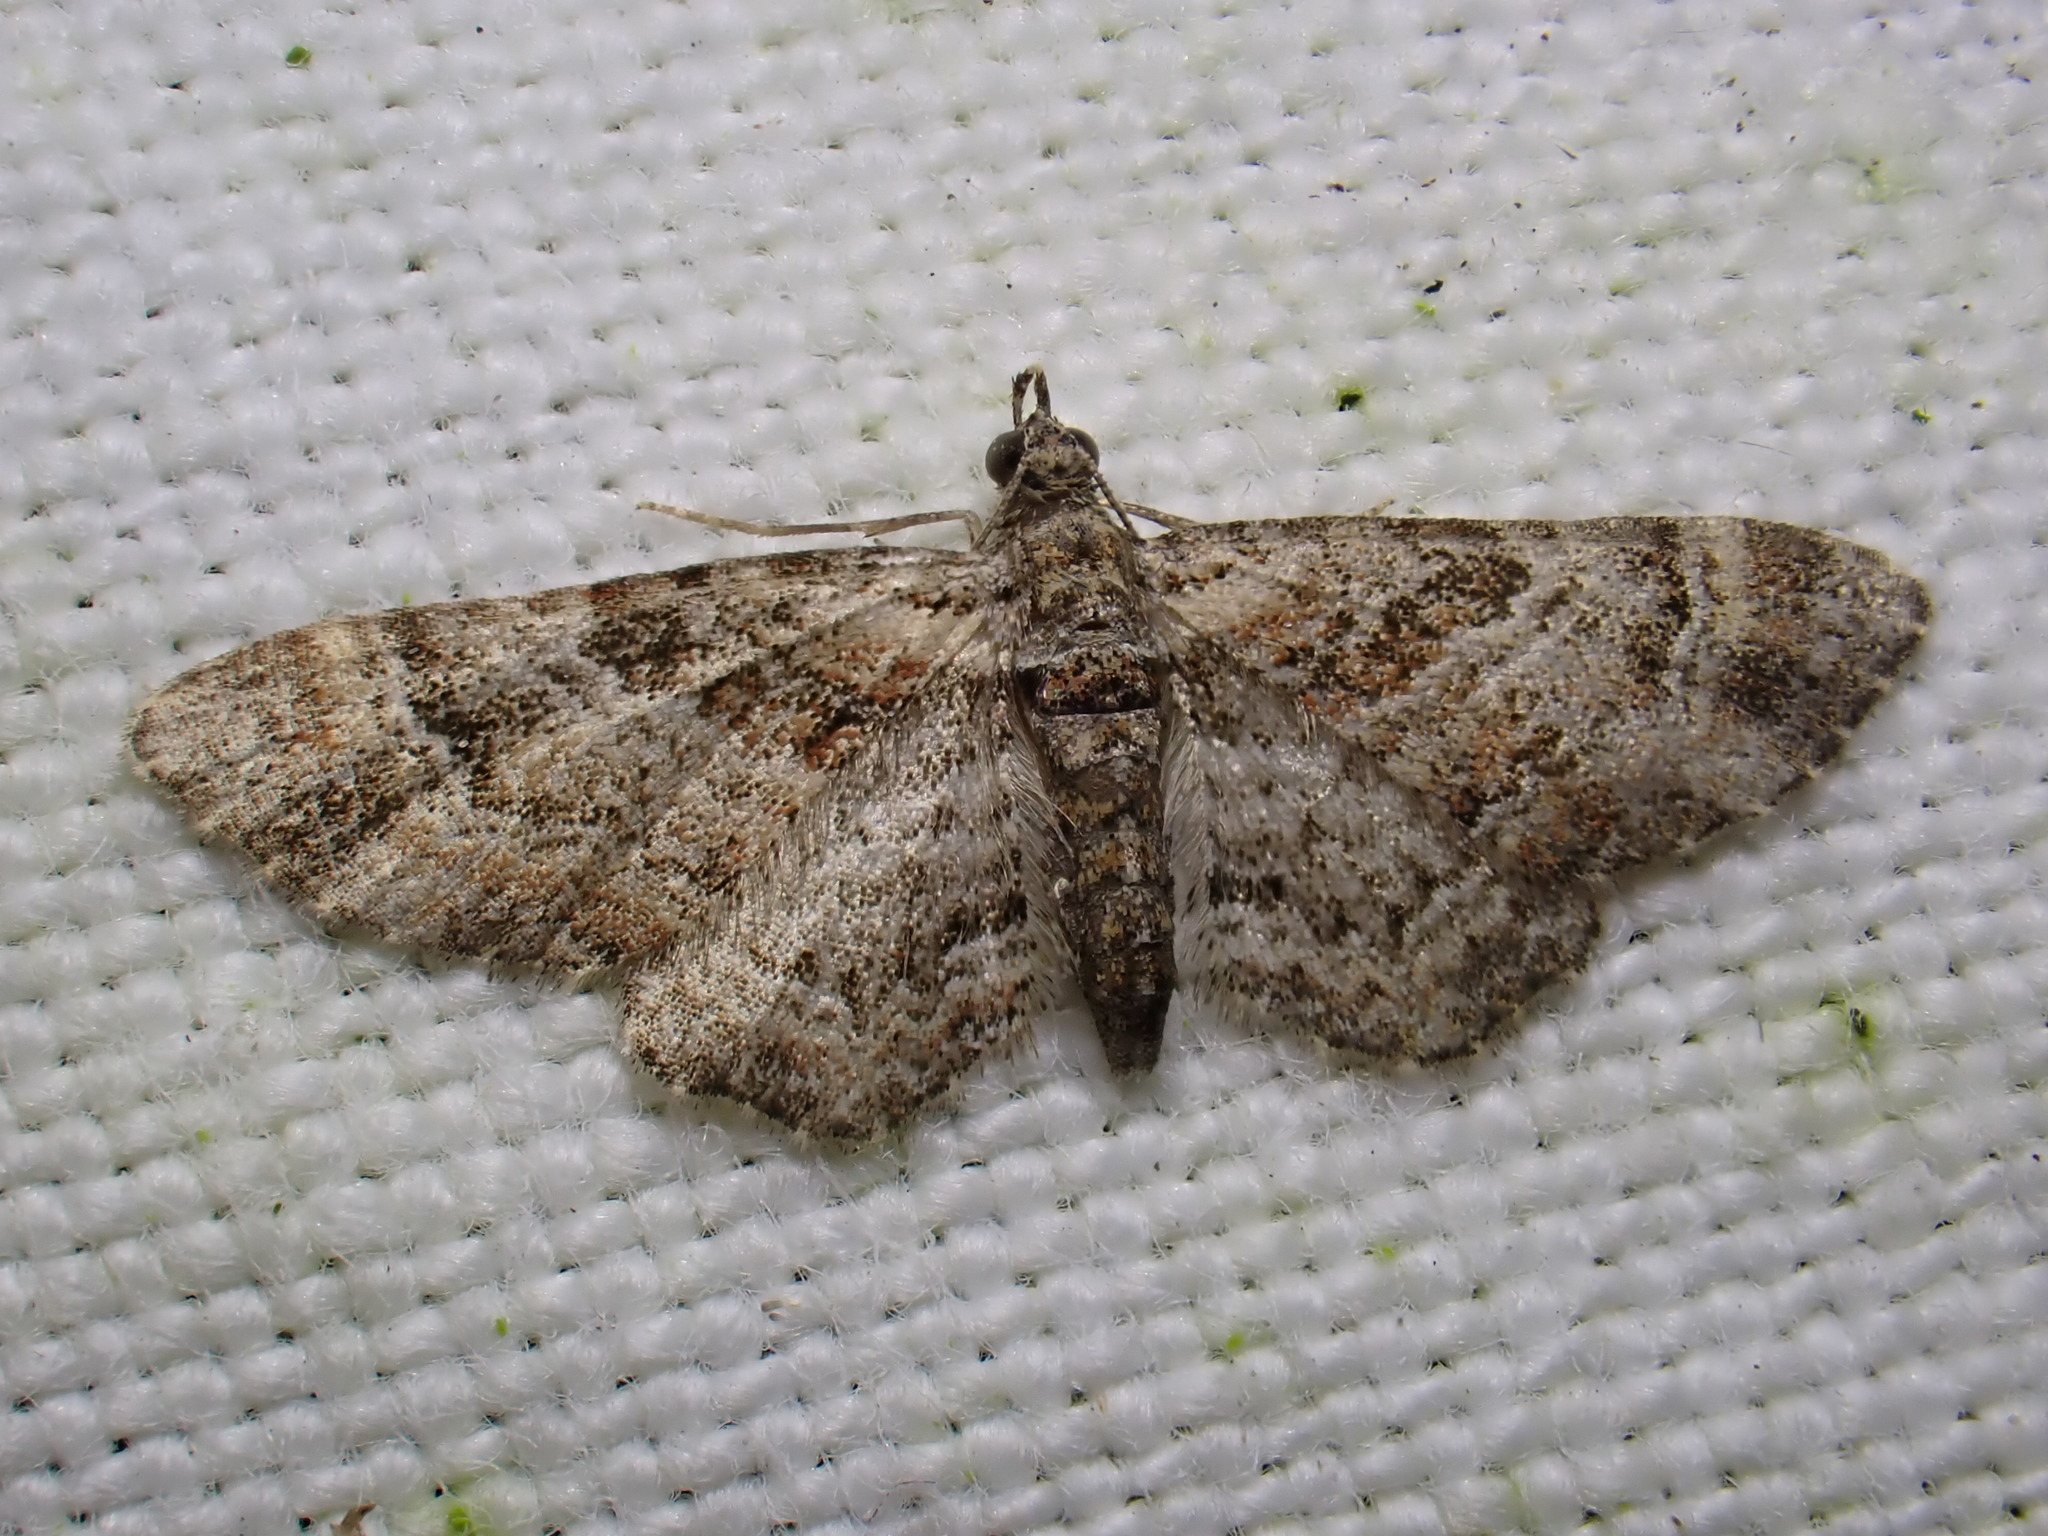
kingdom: Animalia
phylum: Arthropoda
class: Insecta
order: Lepidoptera
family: Geometridae
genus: Gymnoscelis
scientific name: Gymnoscelis rufifasciata
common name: Double-striped pug
